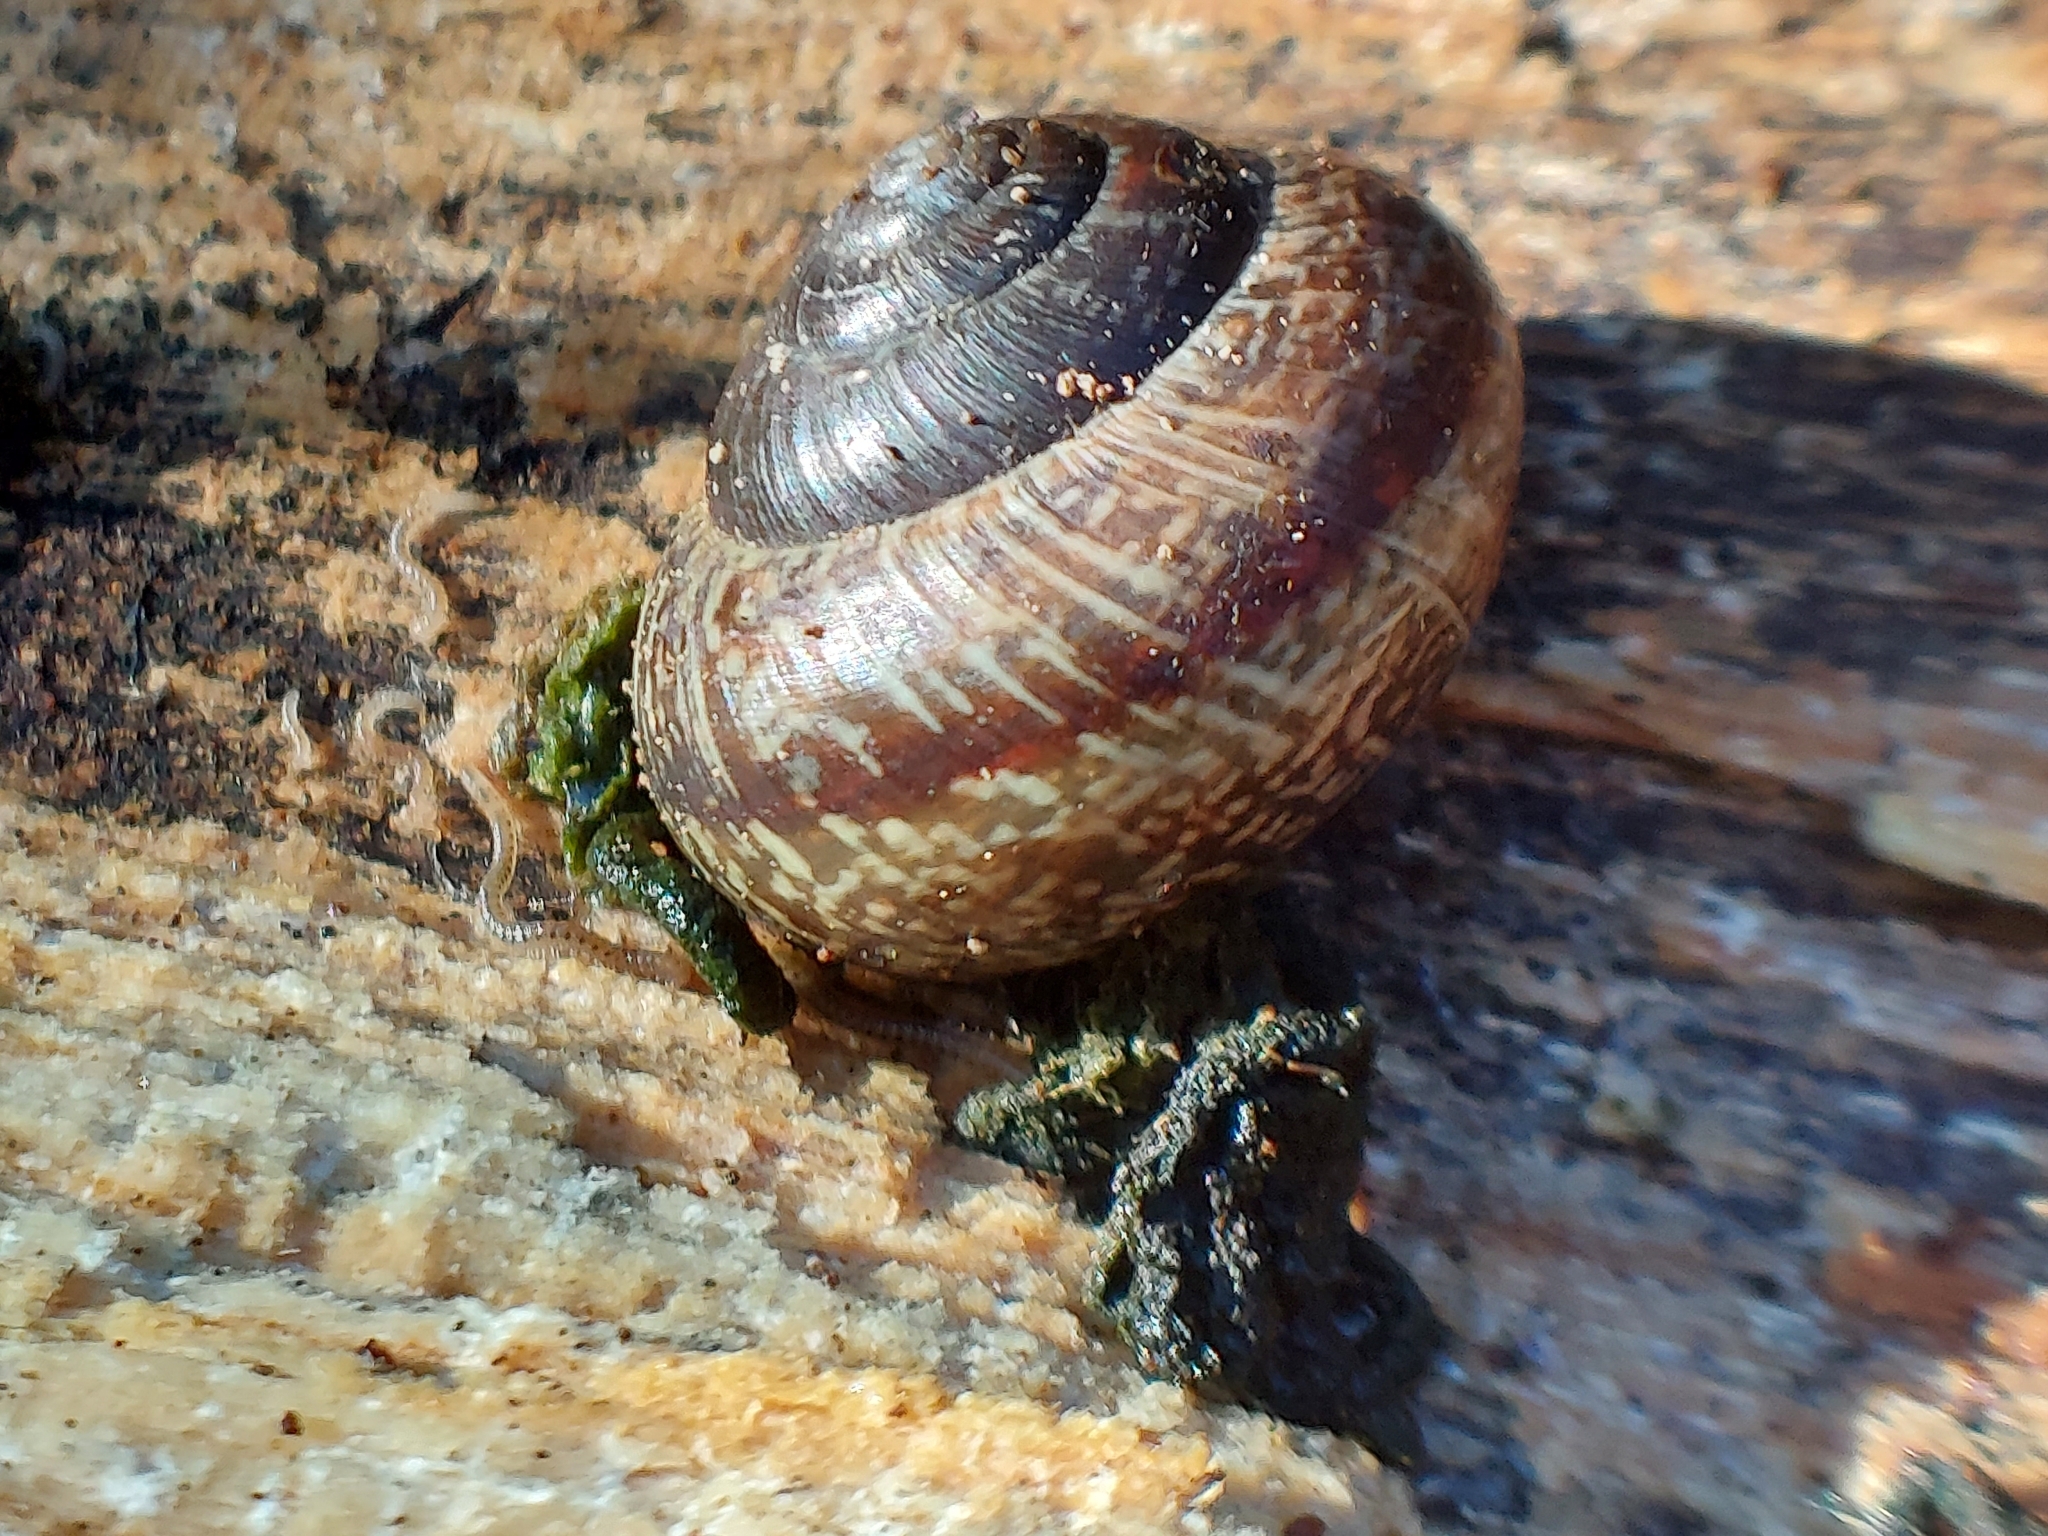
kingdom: Animalia
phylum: Mollusca
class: Gastropoda
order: Stylommatophora
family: Helicidae
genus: Arianta
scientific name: Arianta arbustorum
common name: Copse snail
